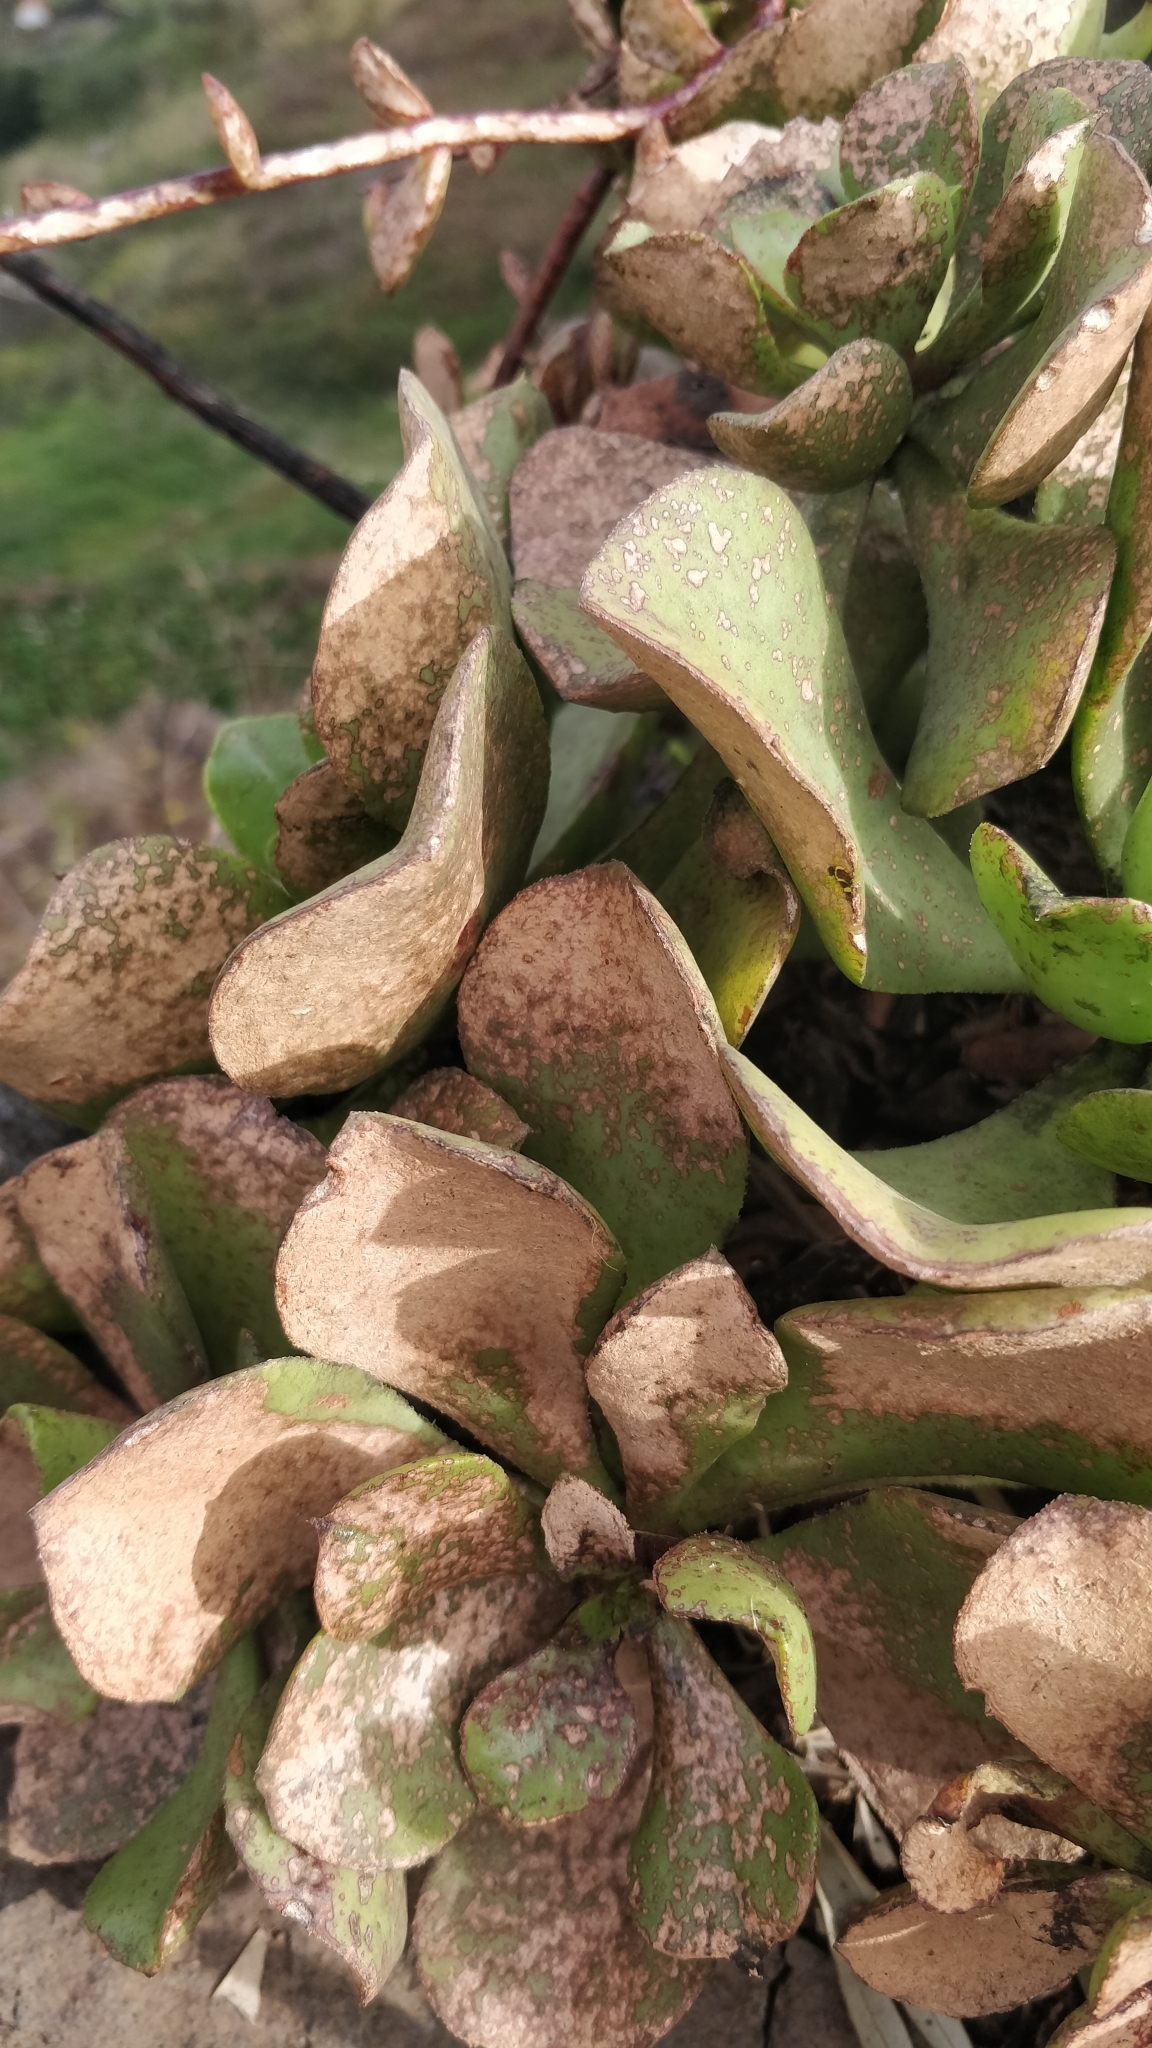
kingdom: Plantae
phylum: Tracheophyta
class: Magnoliopsida
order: Saxifragales
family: Crassulaceae
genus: Aeonium
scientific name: Aeonium glutinosum
